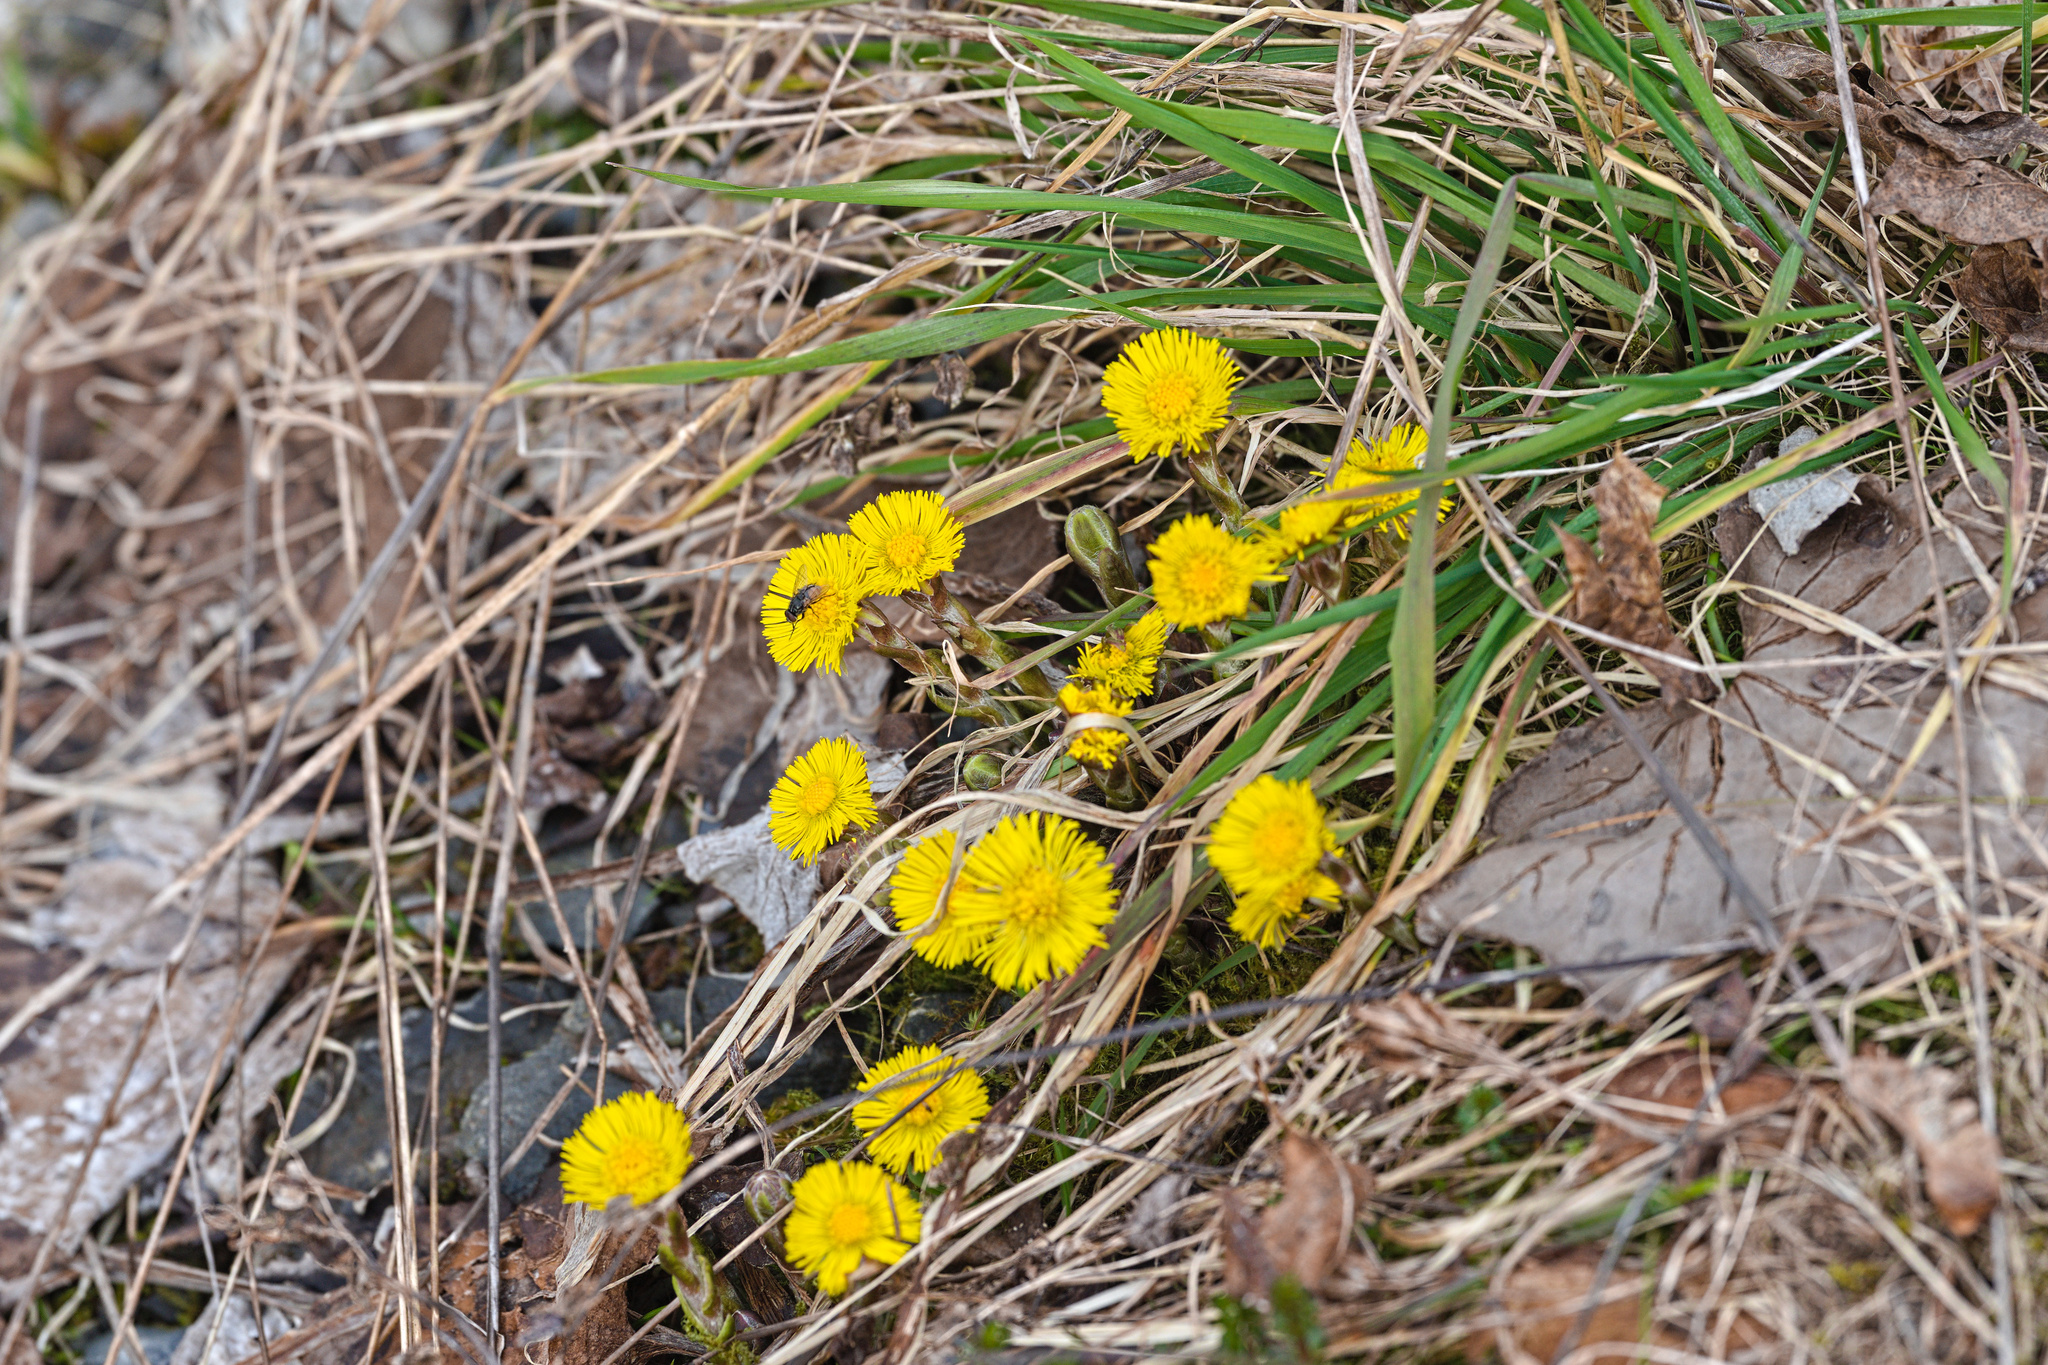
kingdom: Plantae
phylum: Tracheophyta
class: Magnoliopsida
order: Asterales
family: Asteraceae
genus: Tussilago
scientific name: Tussilago farfara
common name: Coltsfoot
